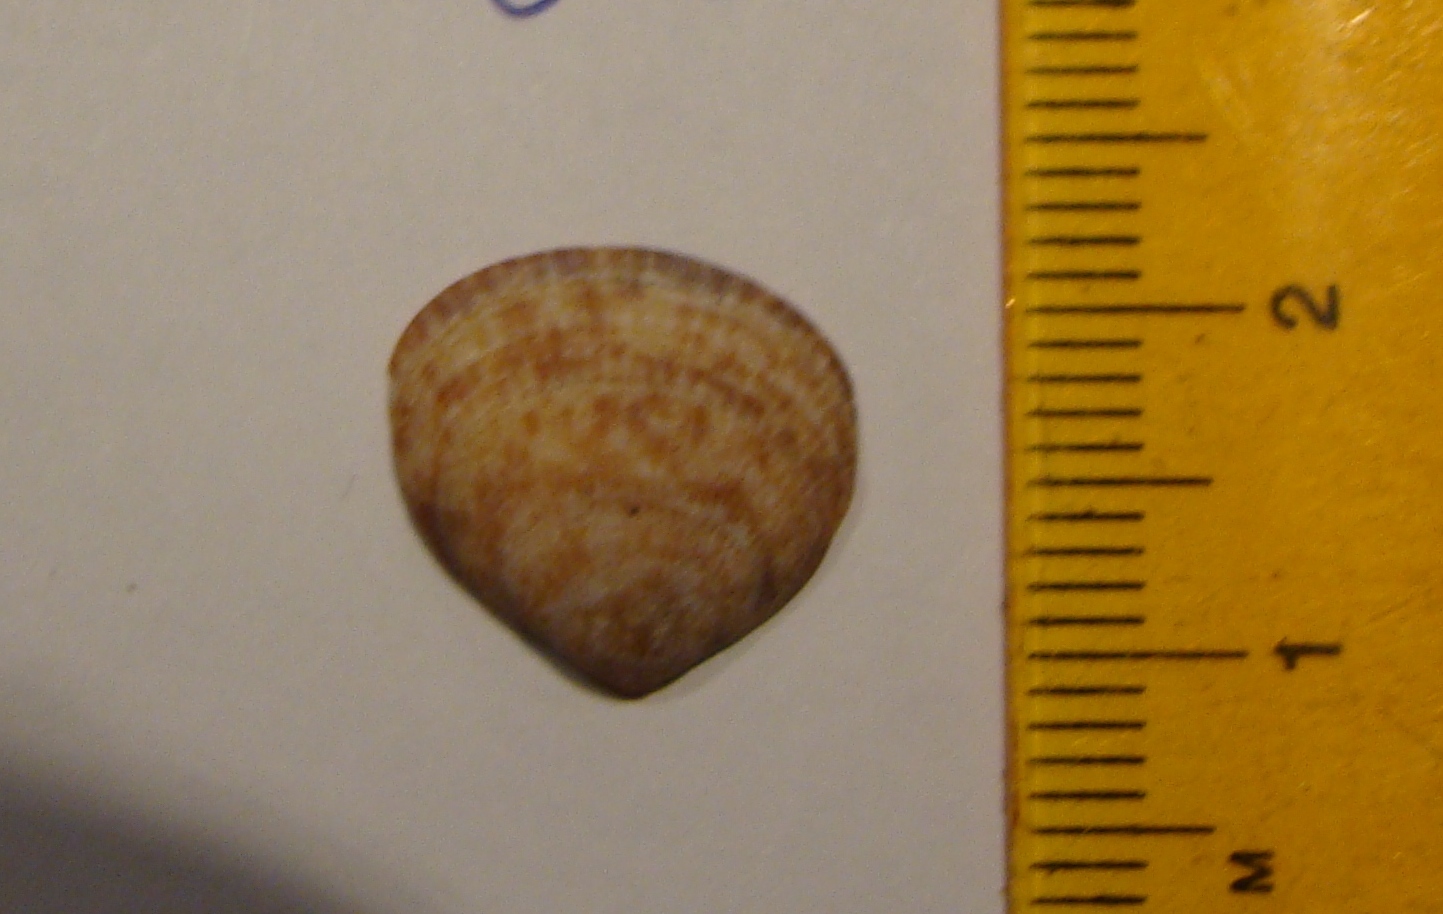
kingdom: Animalia
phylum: Mollusca
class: Bivalvia
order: Arcida
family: Glycymerididae
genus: Glycymeris
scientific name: Glycymeris modesta
